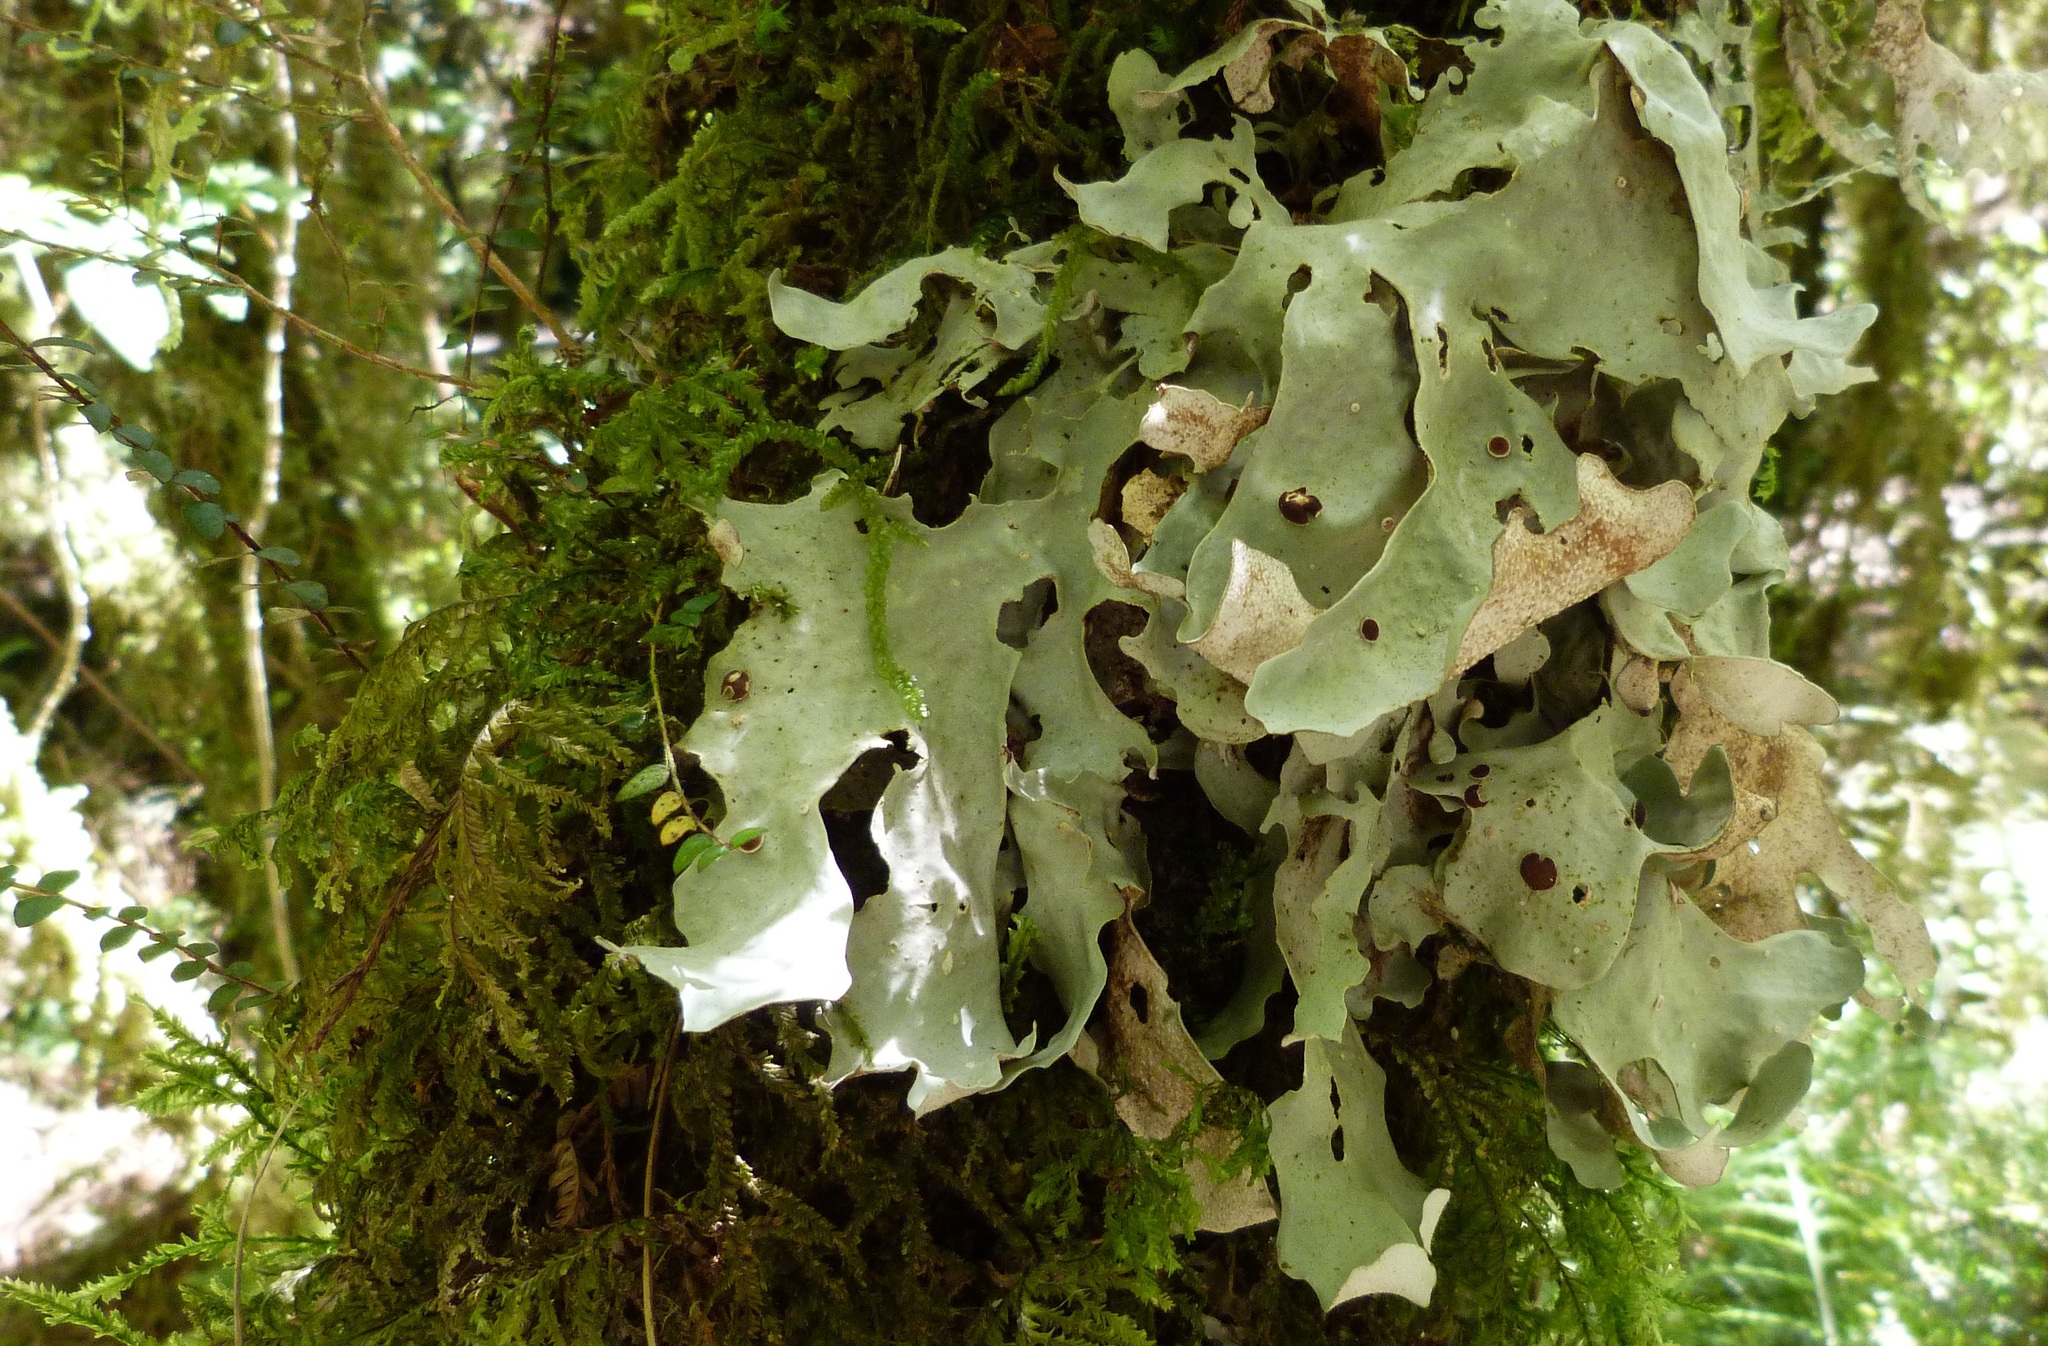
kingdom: Fungi
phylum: Ascomycota
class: Lecanoromycetes
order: Peltigerales
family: Lobariaceae
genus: Sticta
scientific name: Sticta latifrons
